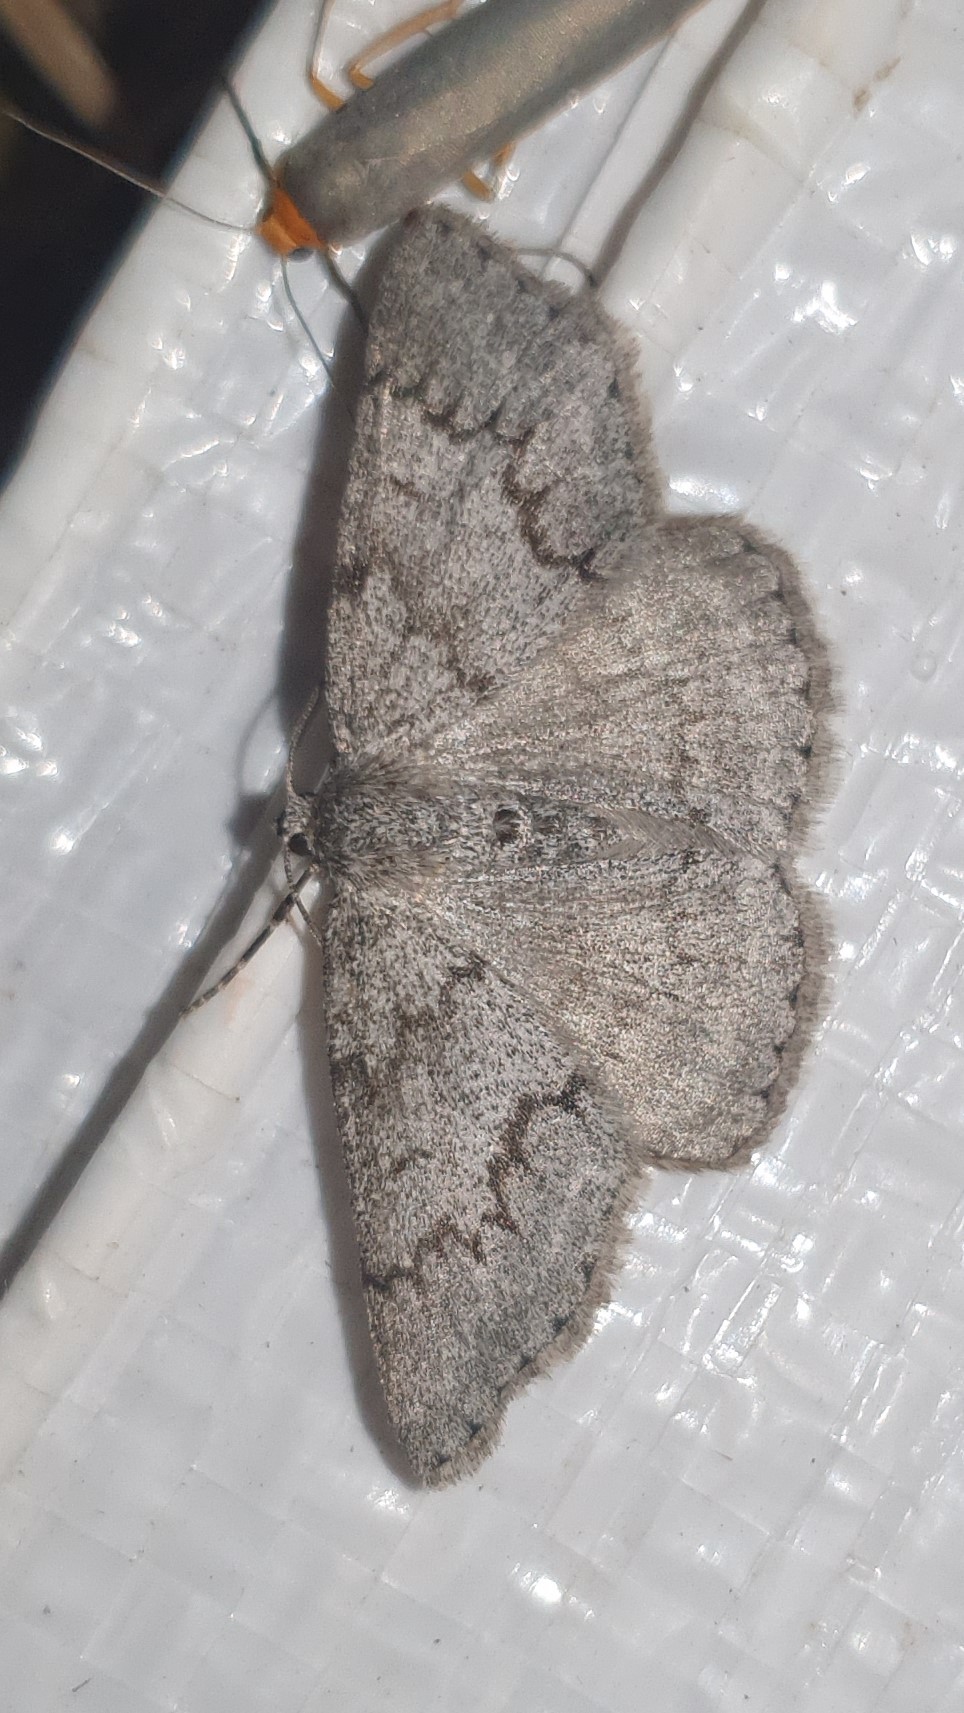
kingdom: Animalia
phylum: Arthropoda
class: Insecta
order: Lepidoptera
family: Geometridae
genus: Pseudoterpna
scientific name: Pseudoterpna coronillaria
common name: Jersey emerald
